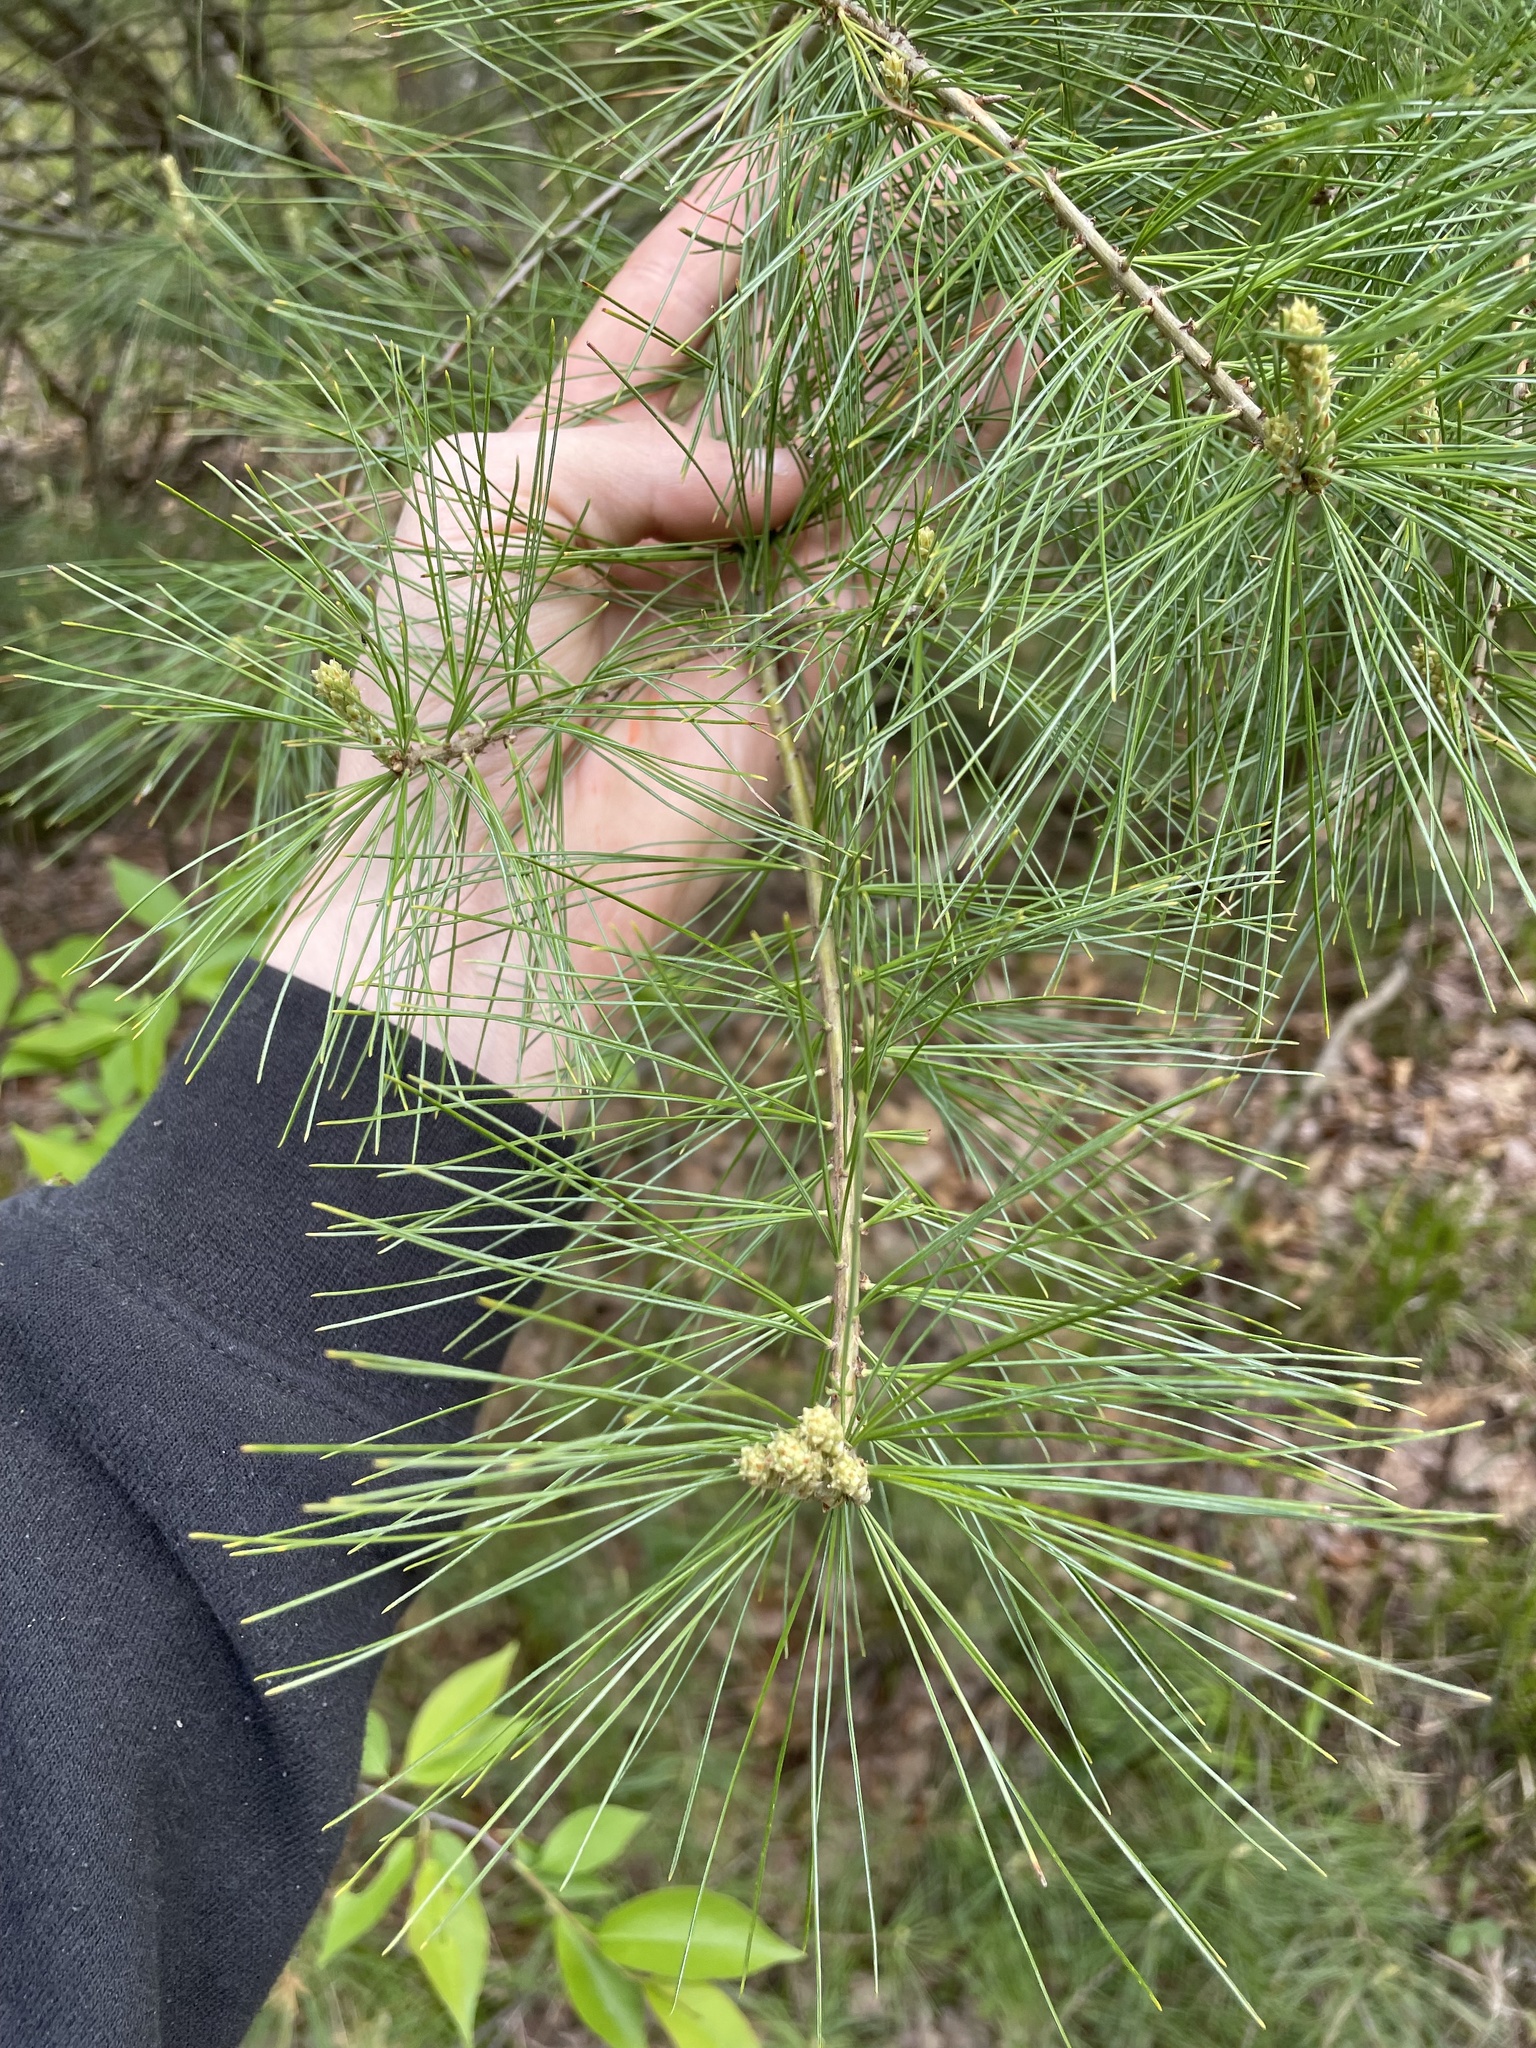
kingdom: Plantae
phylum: Tracheophyta
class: Pinopsida
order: Pinales
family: Pinaceae
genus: Pinus
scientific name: Pinus strobus
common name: Weymouth pine
